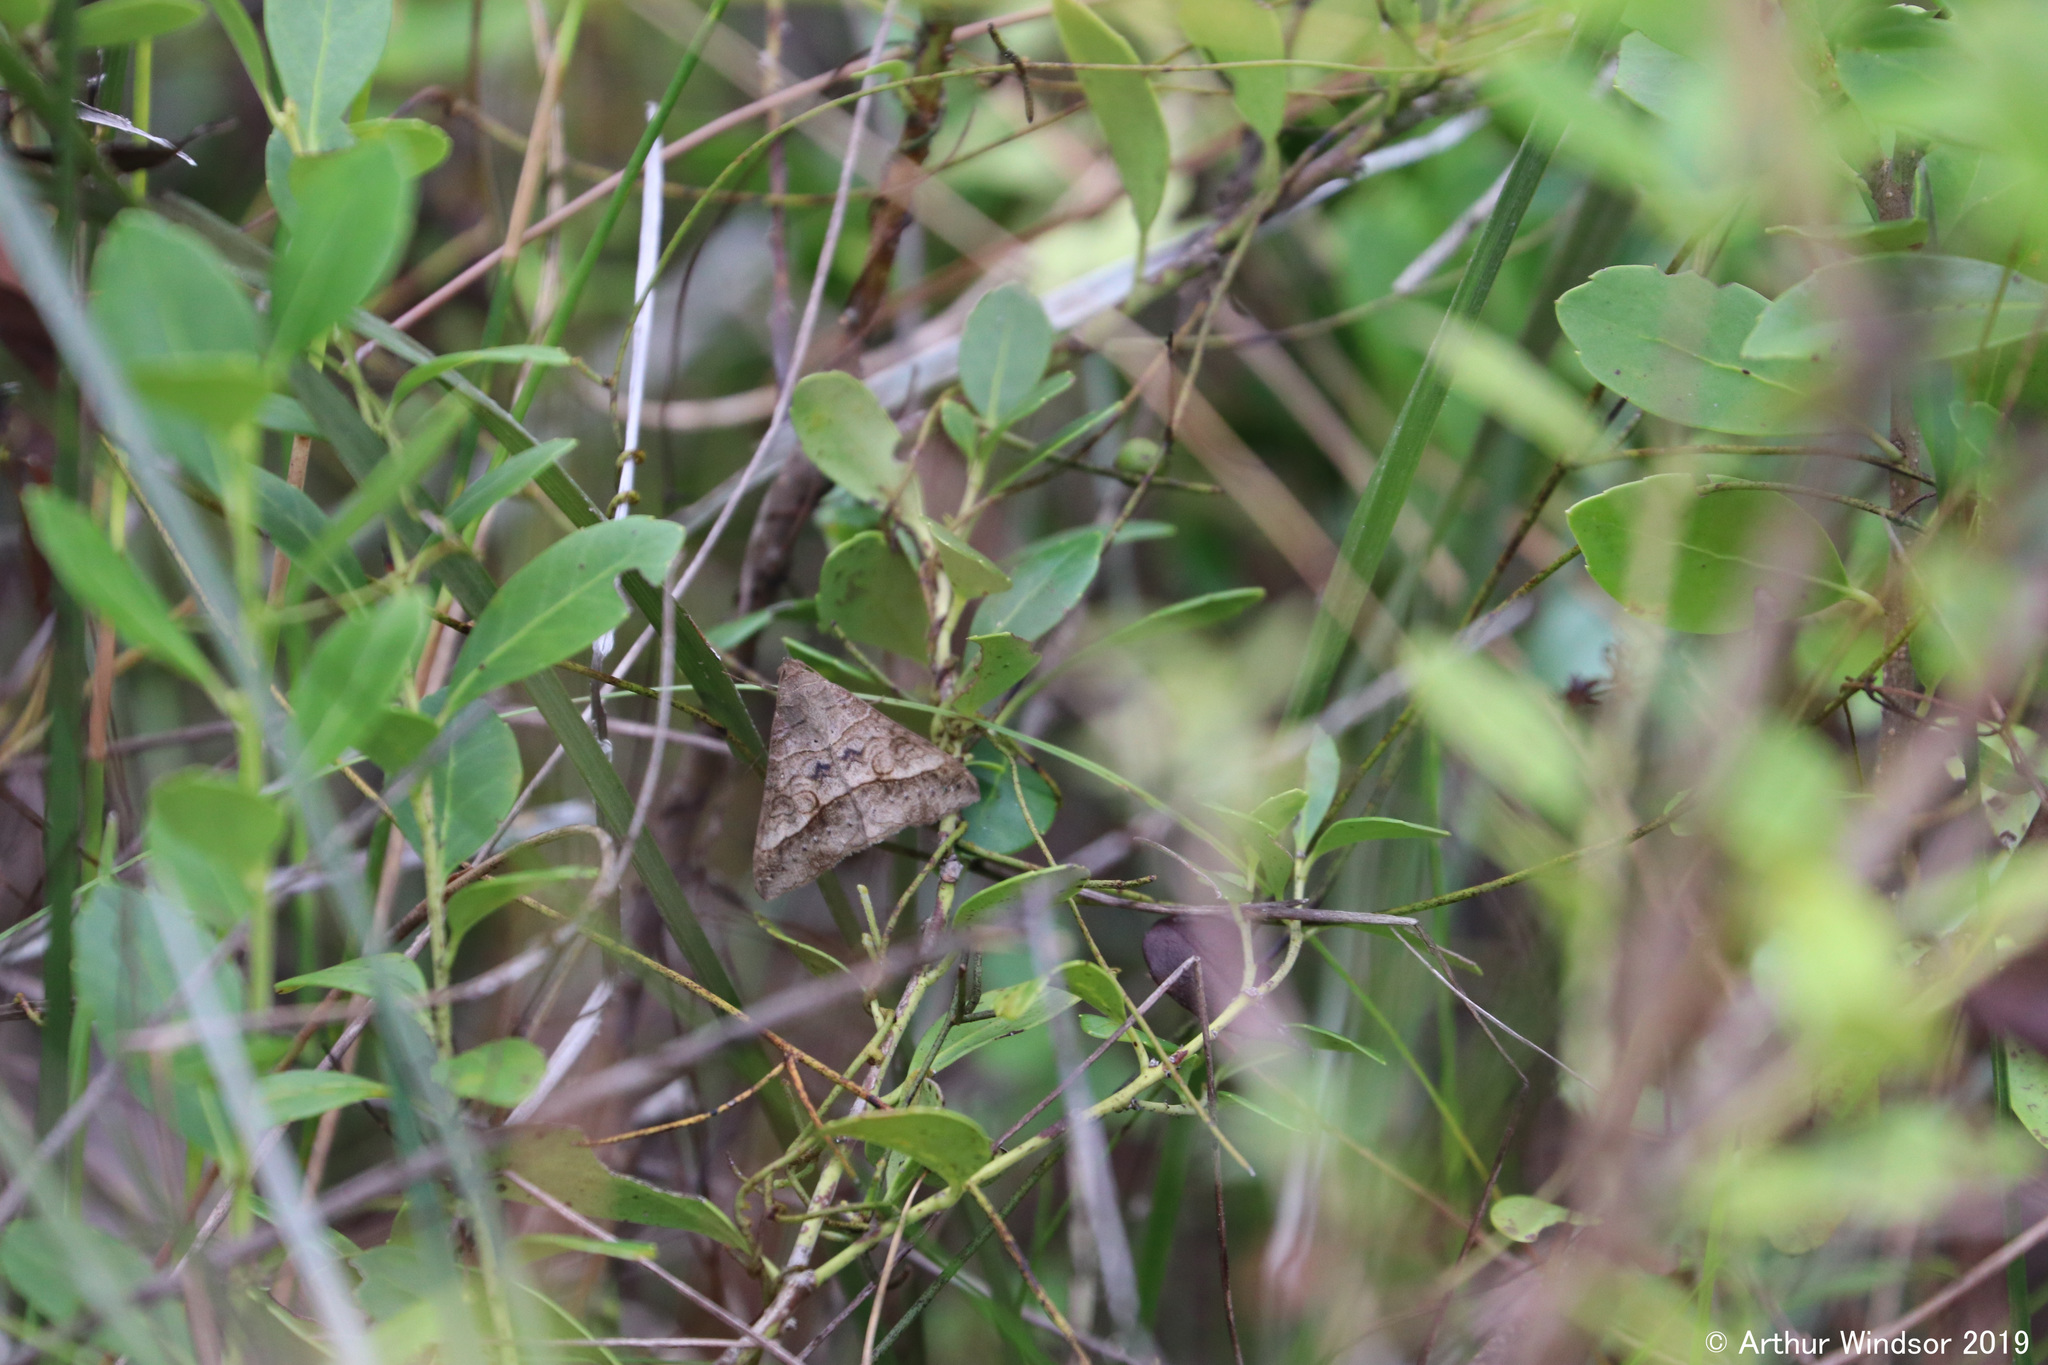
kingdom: Animalia
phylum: Arthropoda
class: Insecta
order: Lepidoptera
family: Erebidae
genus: Mocis
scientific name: Mocis latipes
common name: Striped grass looper
